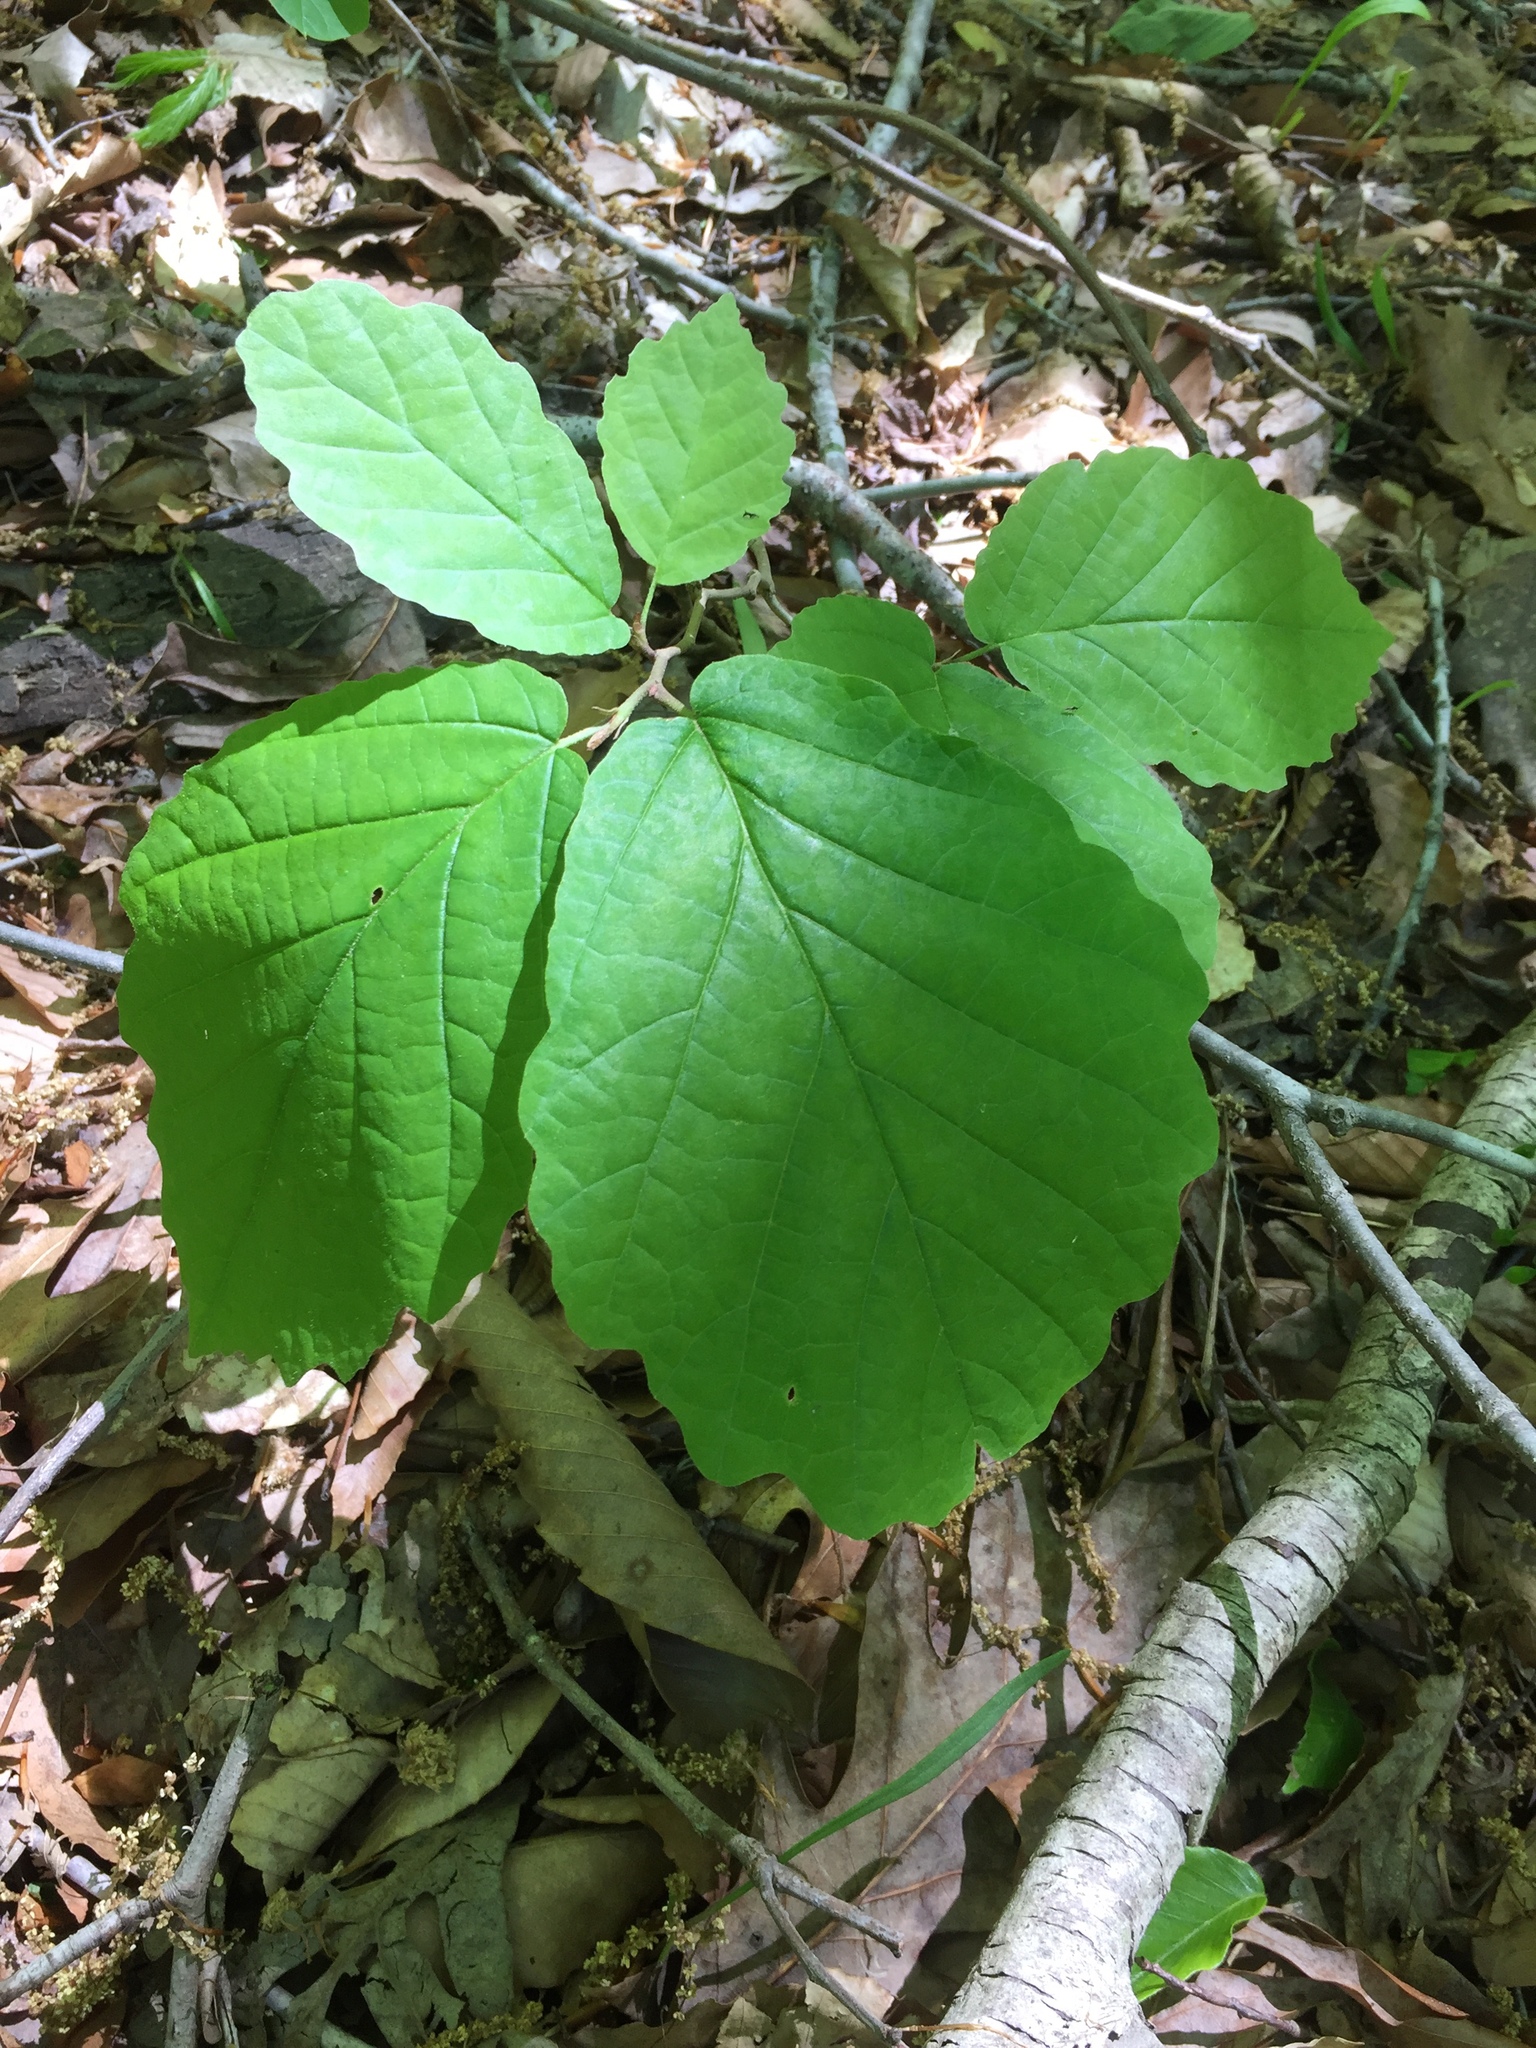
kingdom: Plantae
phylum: Tracheophyta
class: Magnoliopsida
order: Saxifragales
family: Hamamelidaceae
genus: Hamamelis
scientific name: Hamamelis virginiana
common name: Witch-hazel
